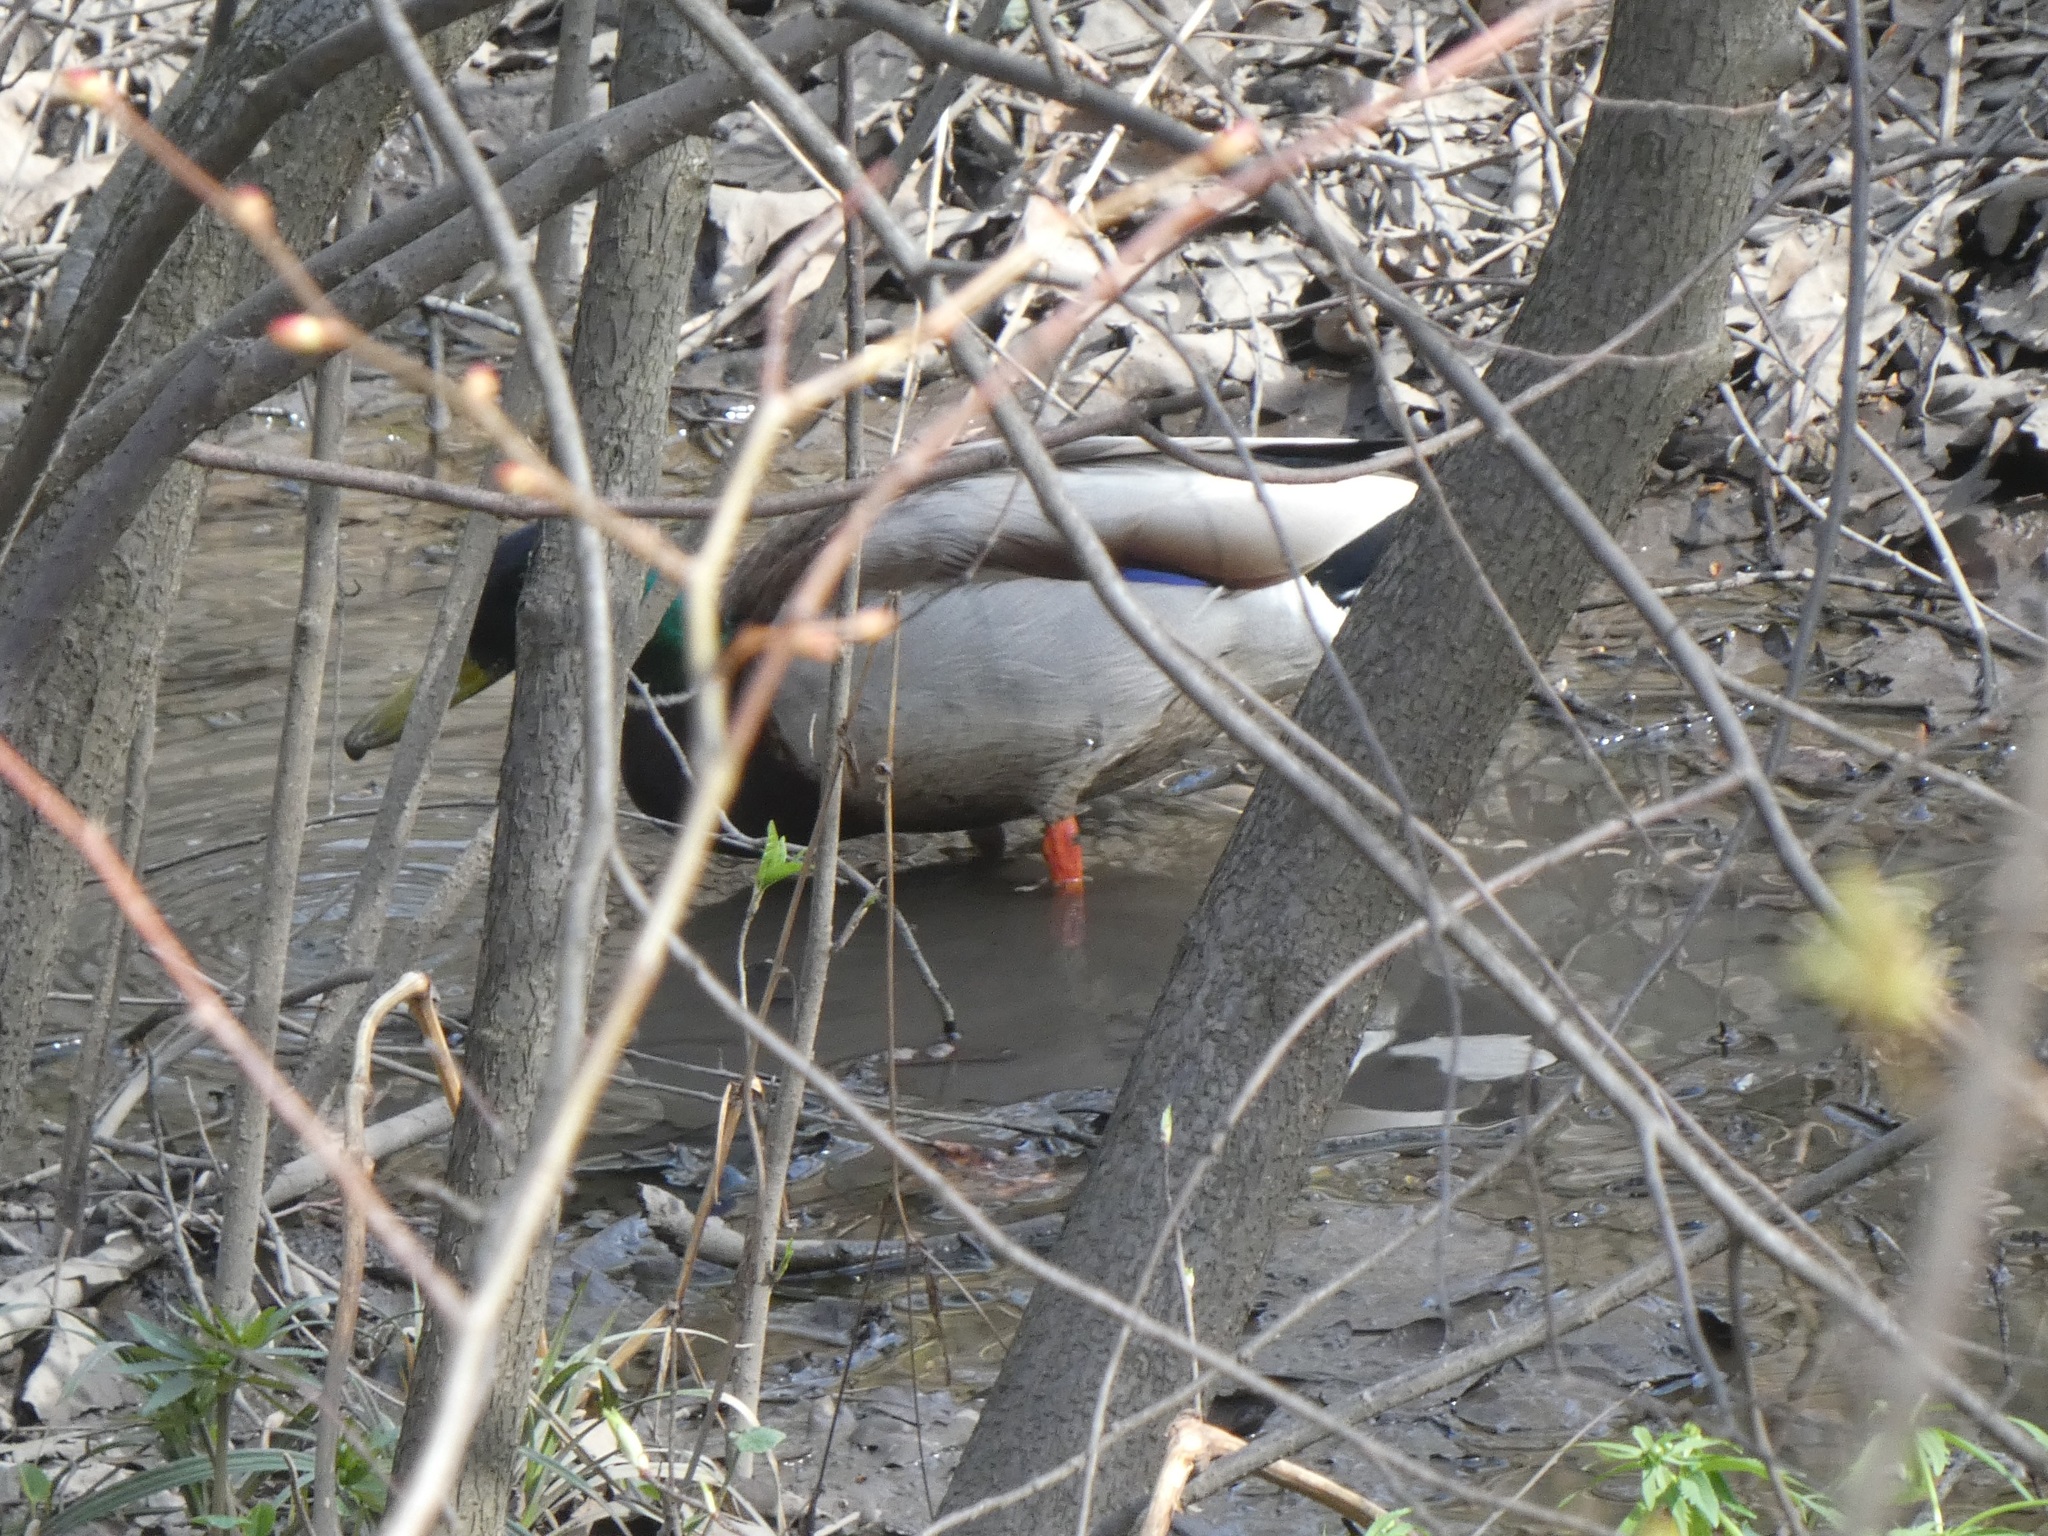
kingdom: Animalia
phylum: Chordata
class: Aves
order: Anseriformes
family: Anatidae
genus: Anas
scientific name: Anas platyrhynchos
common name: Mallard
